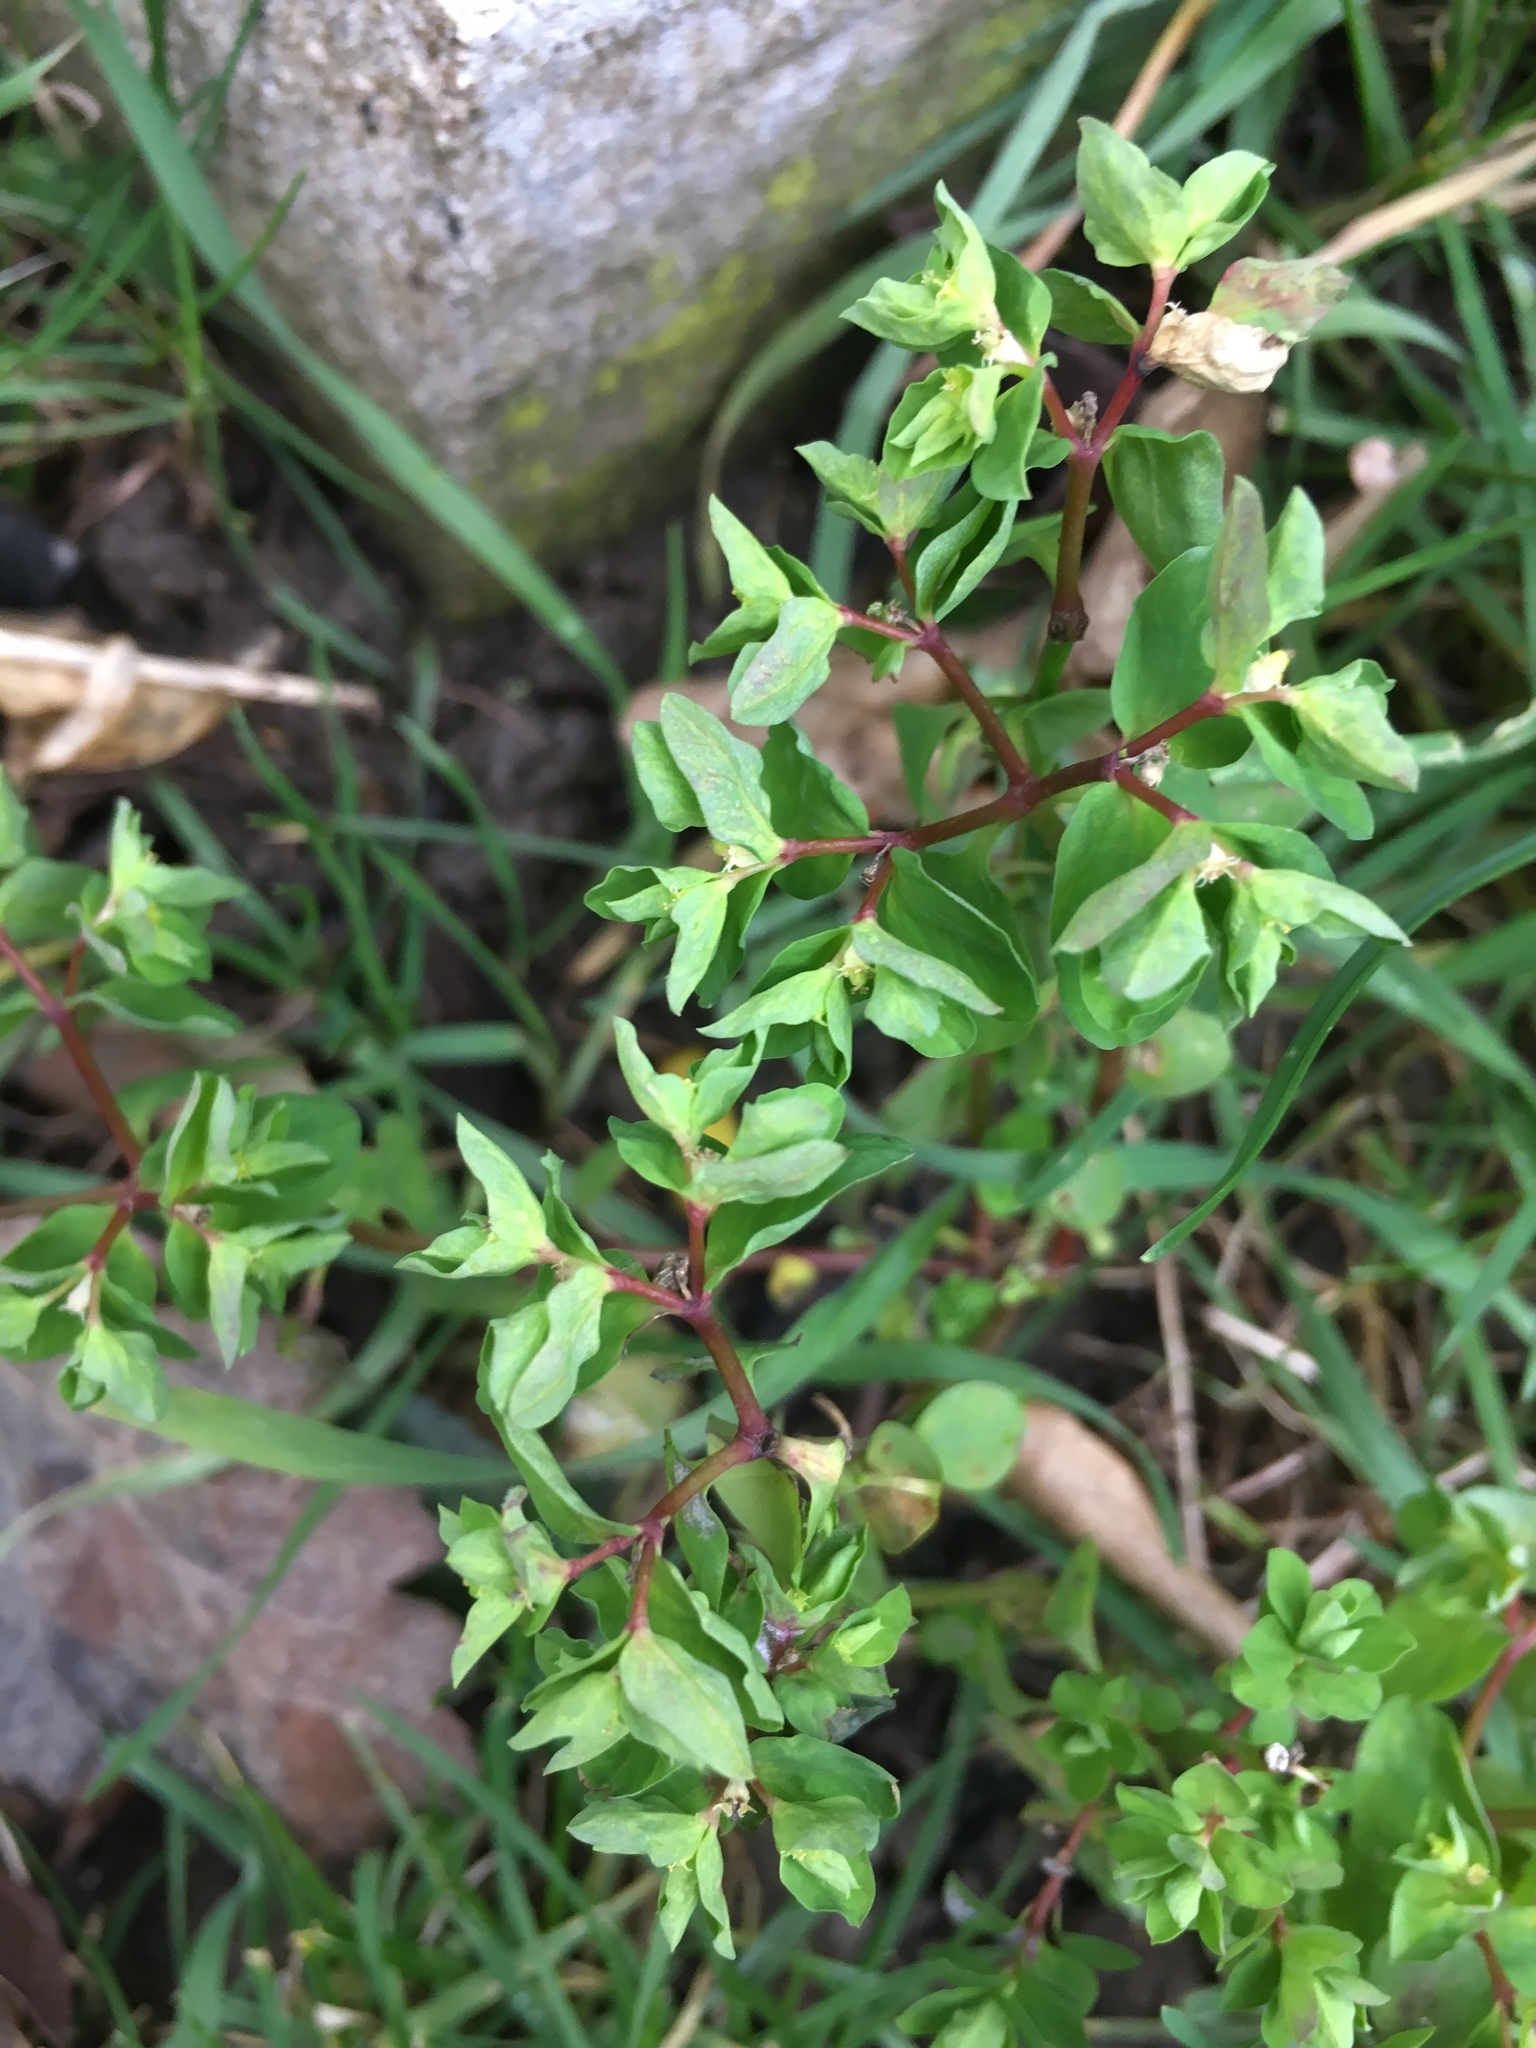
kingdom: Plantae
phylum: Tracheophyta
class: Magnoliopsida
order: Malpighiales
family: Euphorbiaceae
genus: Euphorbia
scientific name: Euphorbia peplus
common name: Petty spurge
